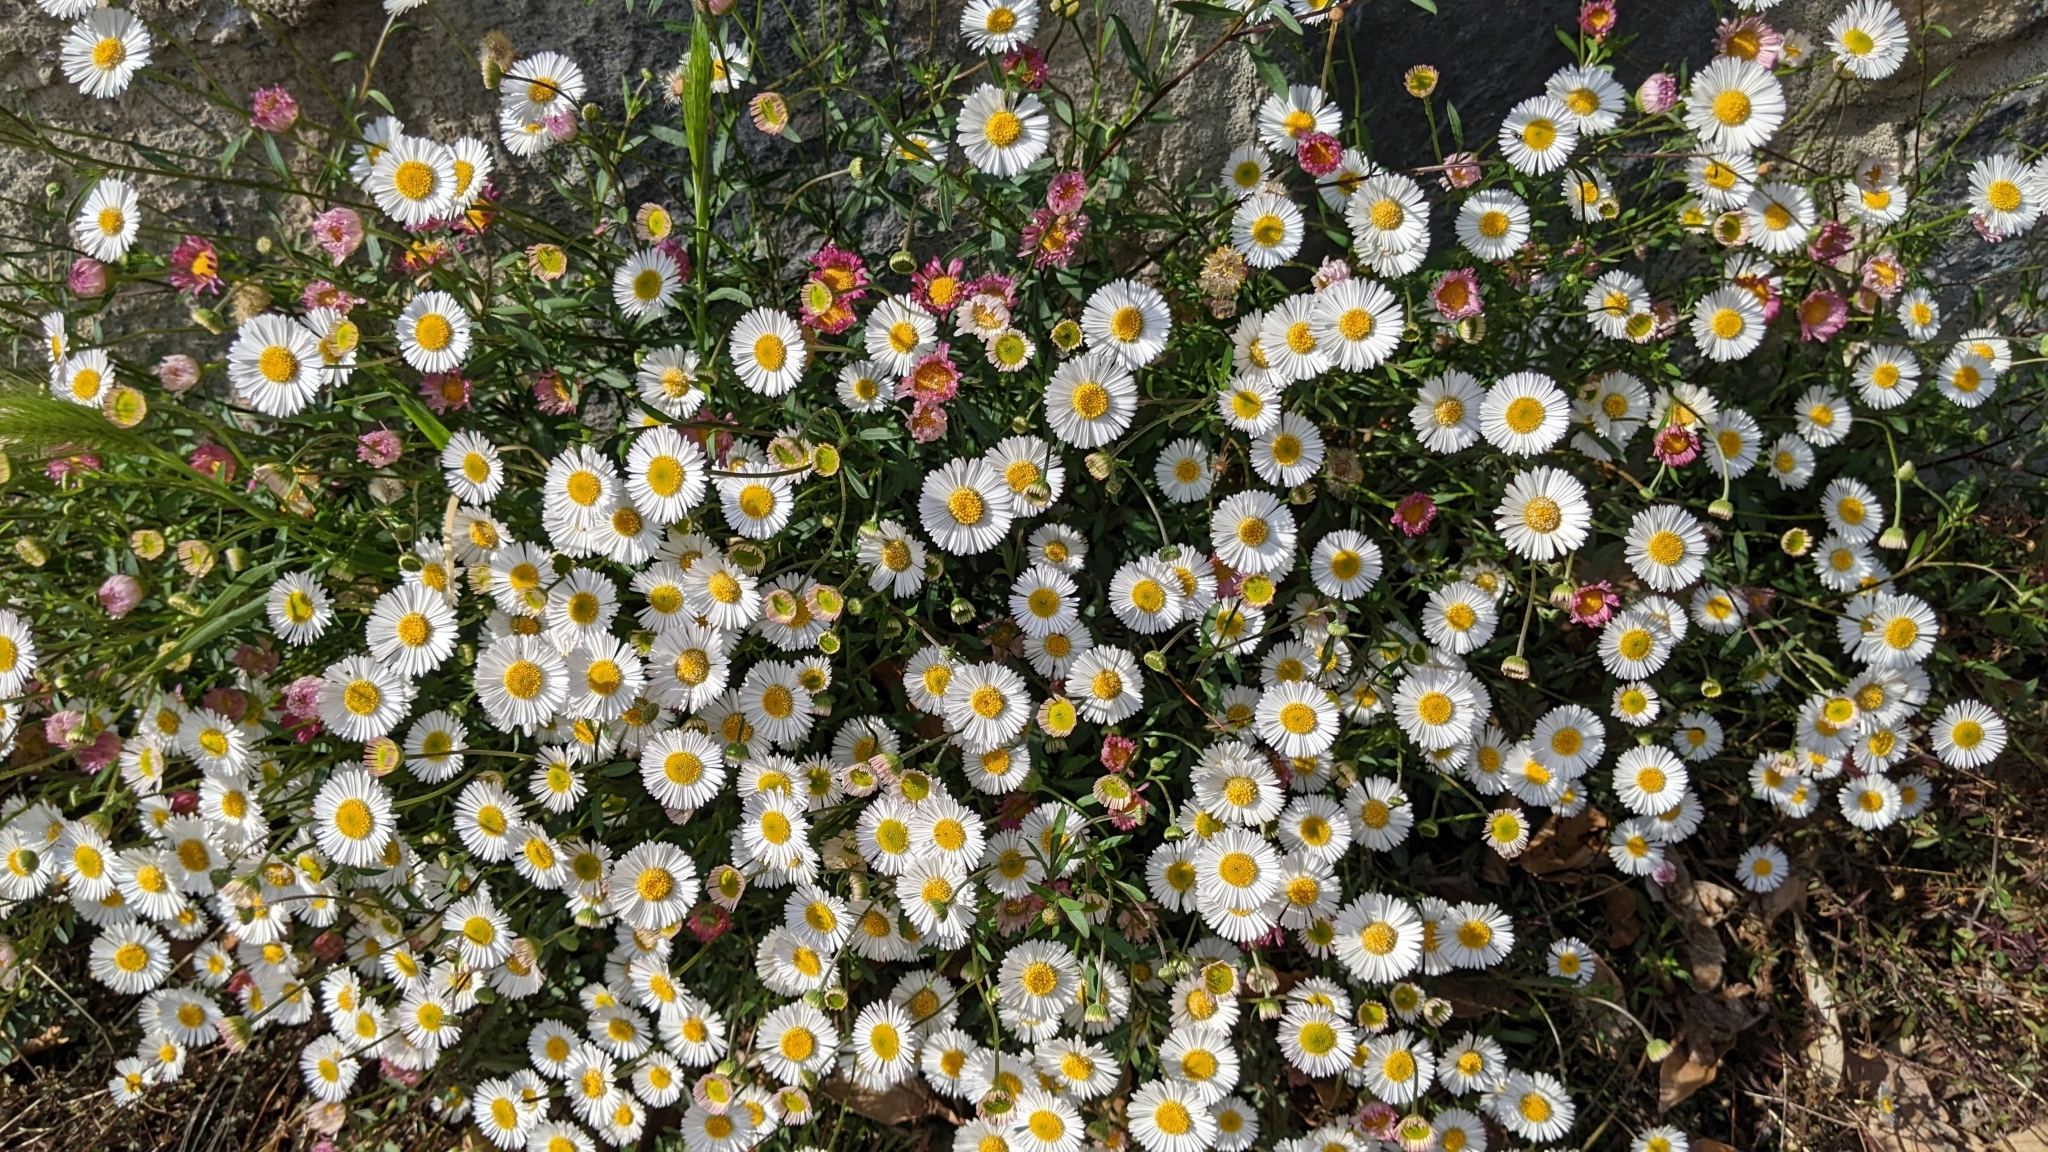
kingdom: Plantae
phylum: Tracheophyta
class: Magnoliopsida
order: Asterales
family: Asteraceae
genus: Erigeron
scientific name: Erigeron karvinskianus
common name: Mexican fleabane
